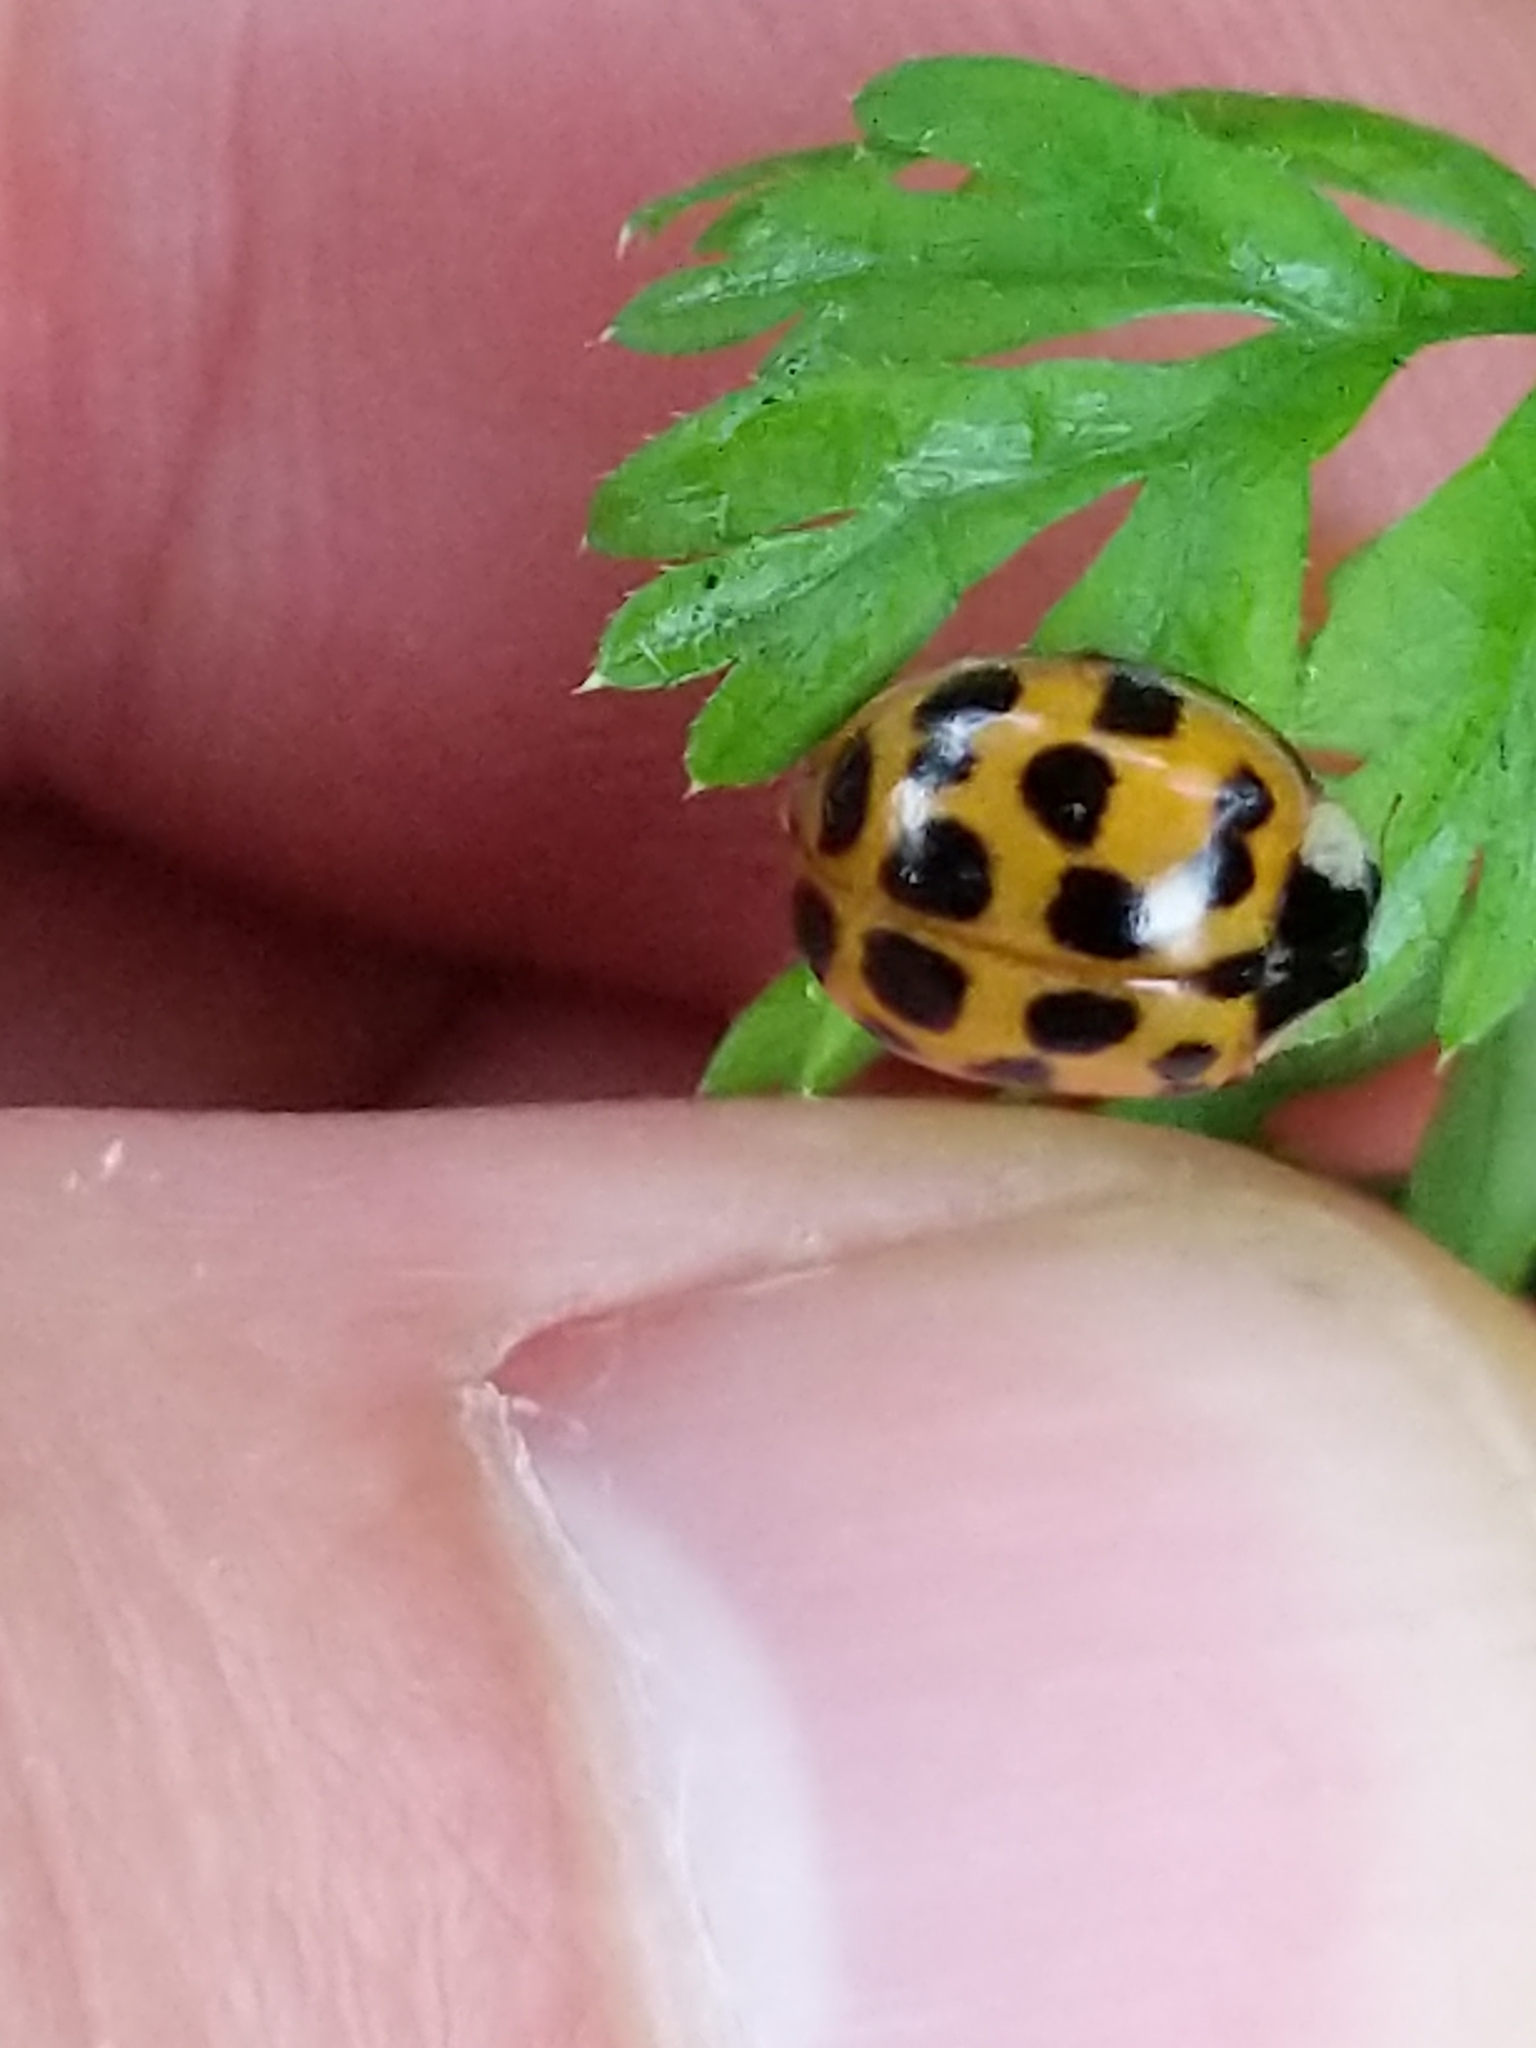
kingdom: Animalia
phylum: Arthropoda
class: Insecta
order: Coleoptera
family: Coccinellidae
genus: Harmonia
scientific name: Harmonia axyridis
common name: Harlequin ladybird
